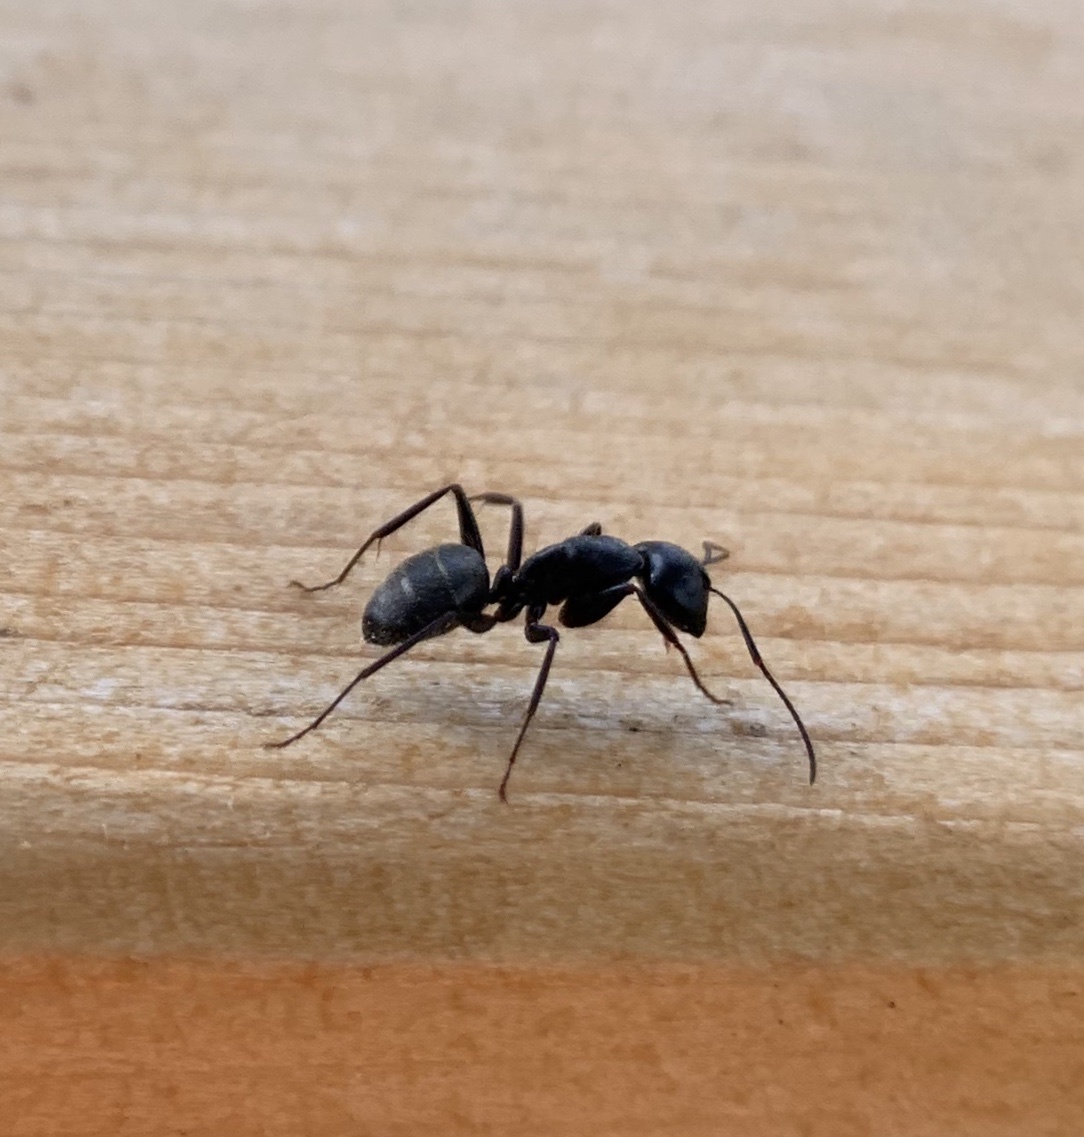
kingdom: Animalia
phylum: Arthropoda
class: Insecta
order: Hymenoptera
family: Formicidae
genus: Camponotus
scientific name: Camponotus pennsylvanicus
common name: Black carpenter ant
